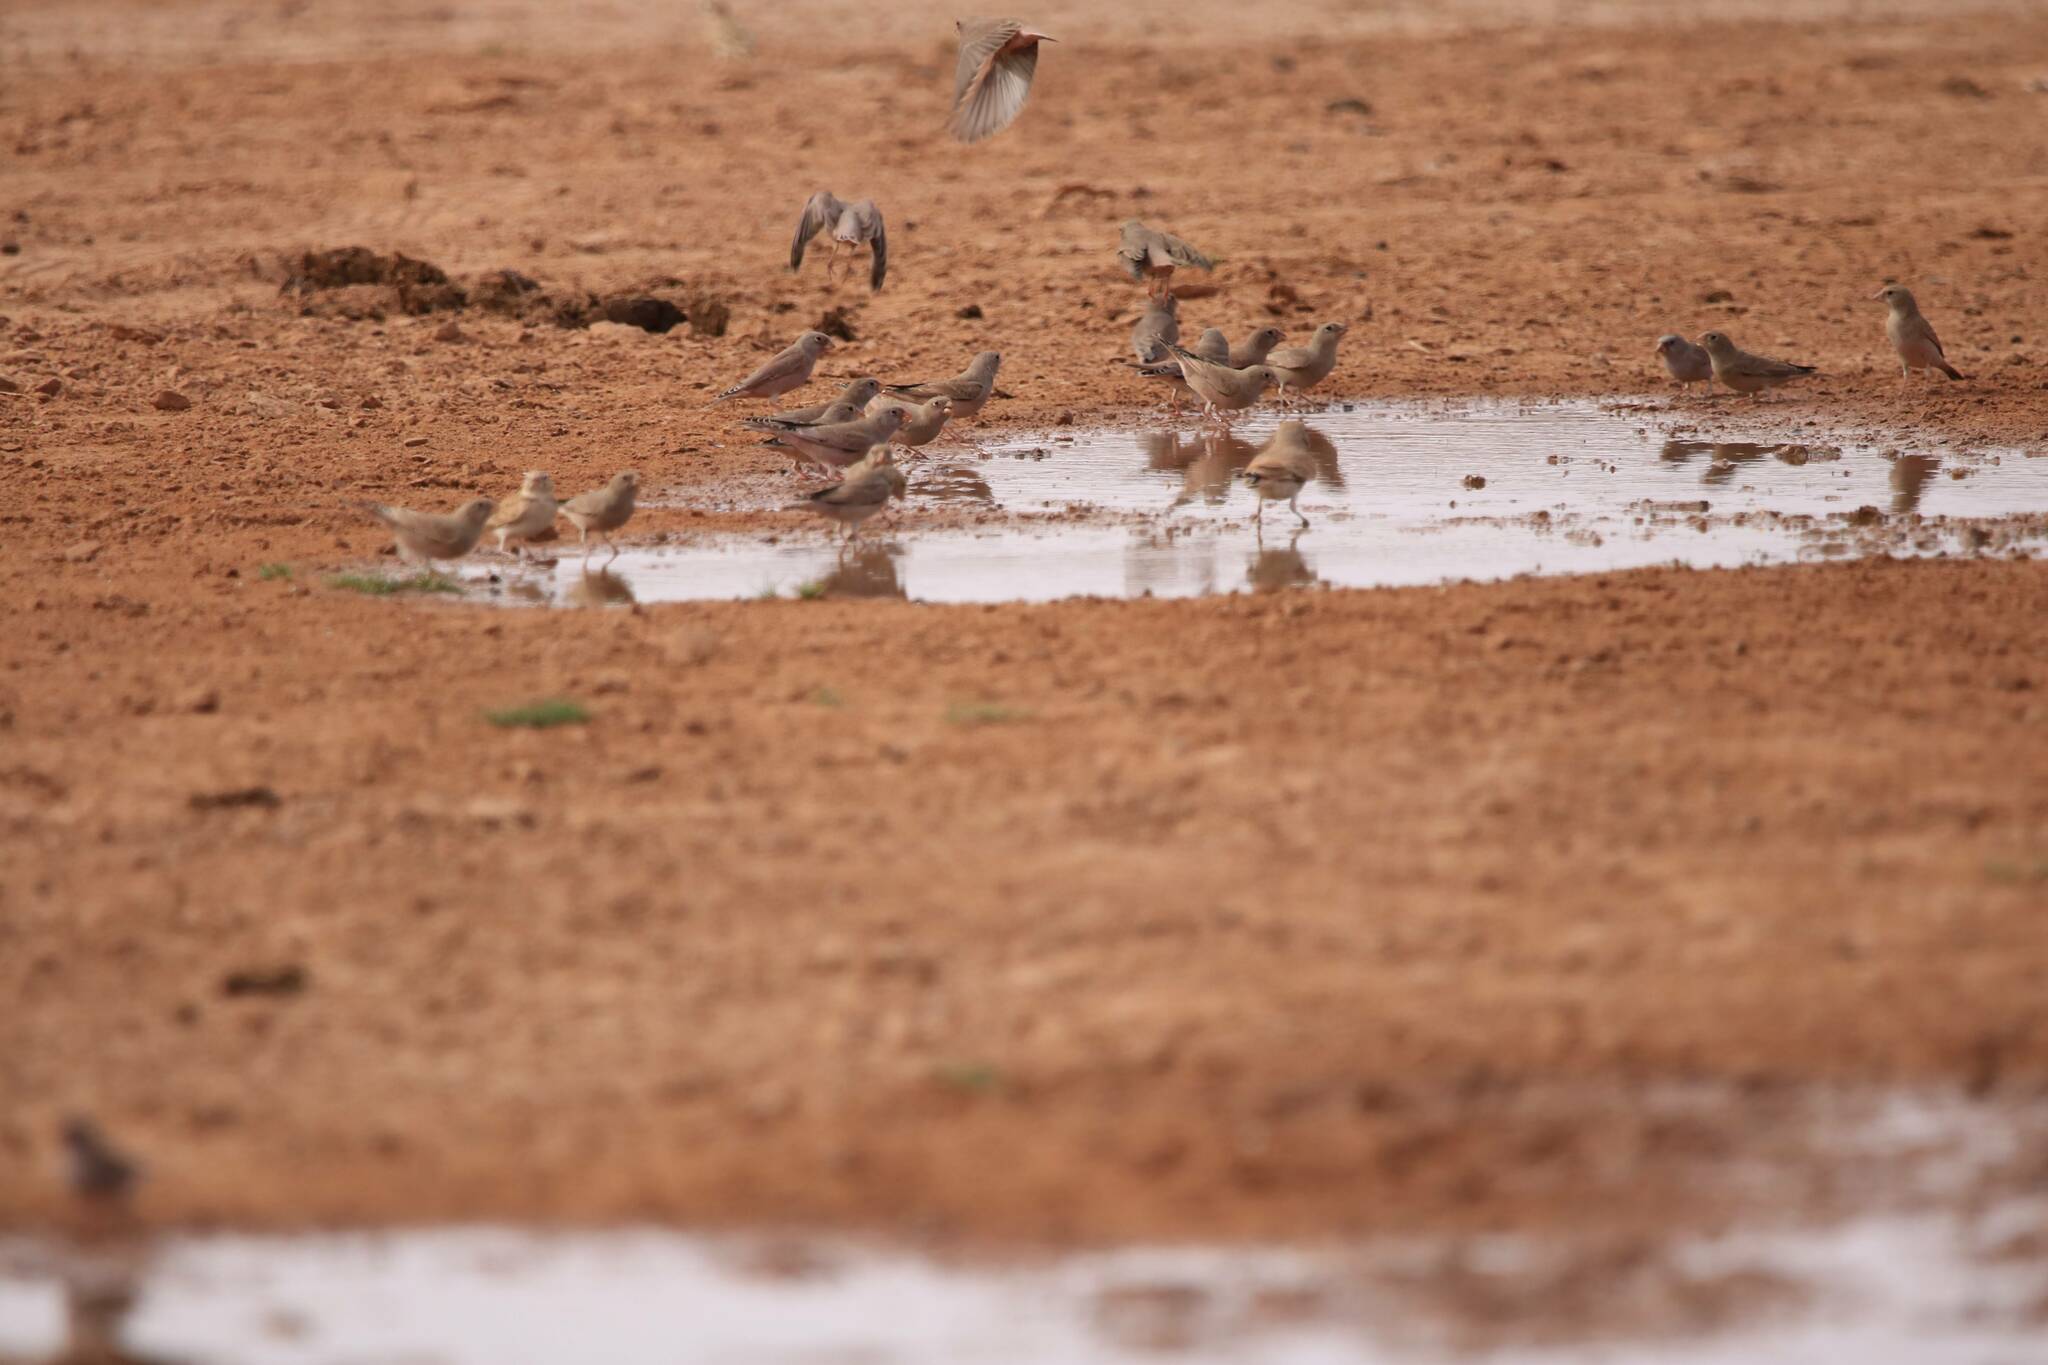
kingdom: Animalia
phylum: Chordata
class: Aves
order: Passeriformes
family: Fringillidae
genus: Bucanetes
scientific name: Bucanetes githagineus
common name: Trumpeter finch
